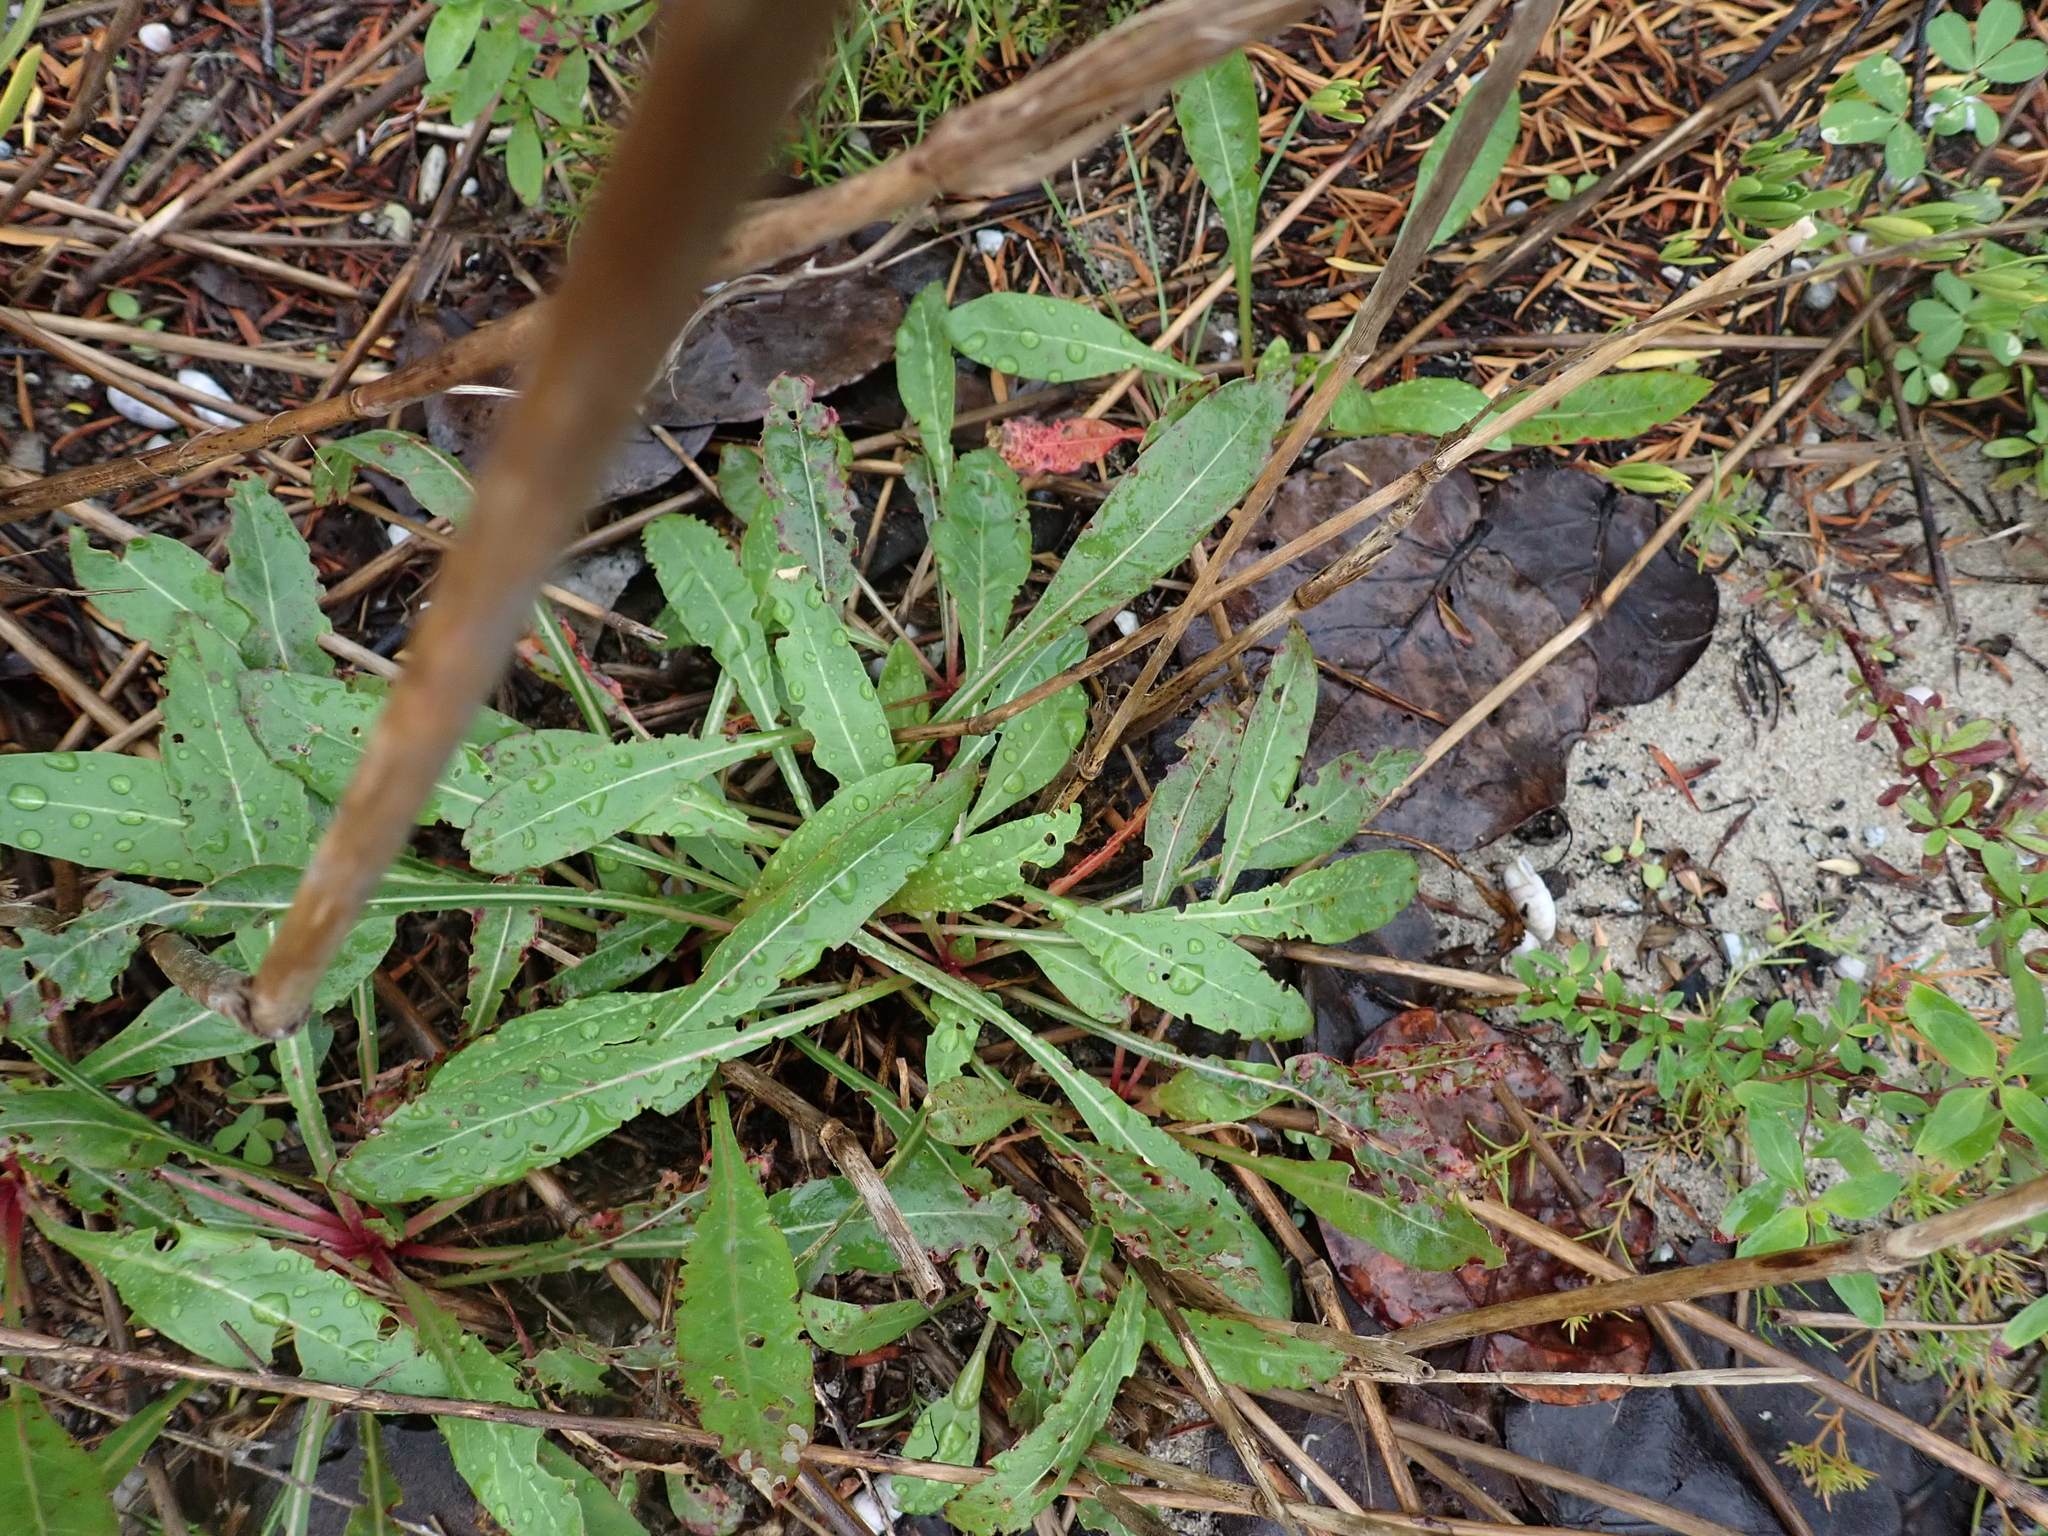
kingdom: Plantae
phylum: Tracheophyta
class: Magnoliopsida
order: Myrtales
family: Onagraceae
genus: Oenothera
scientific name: Oenothera simulans
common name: Southern beeblossom
